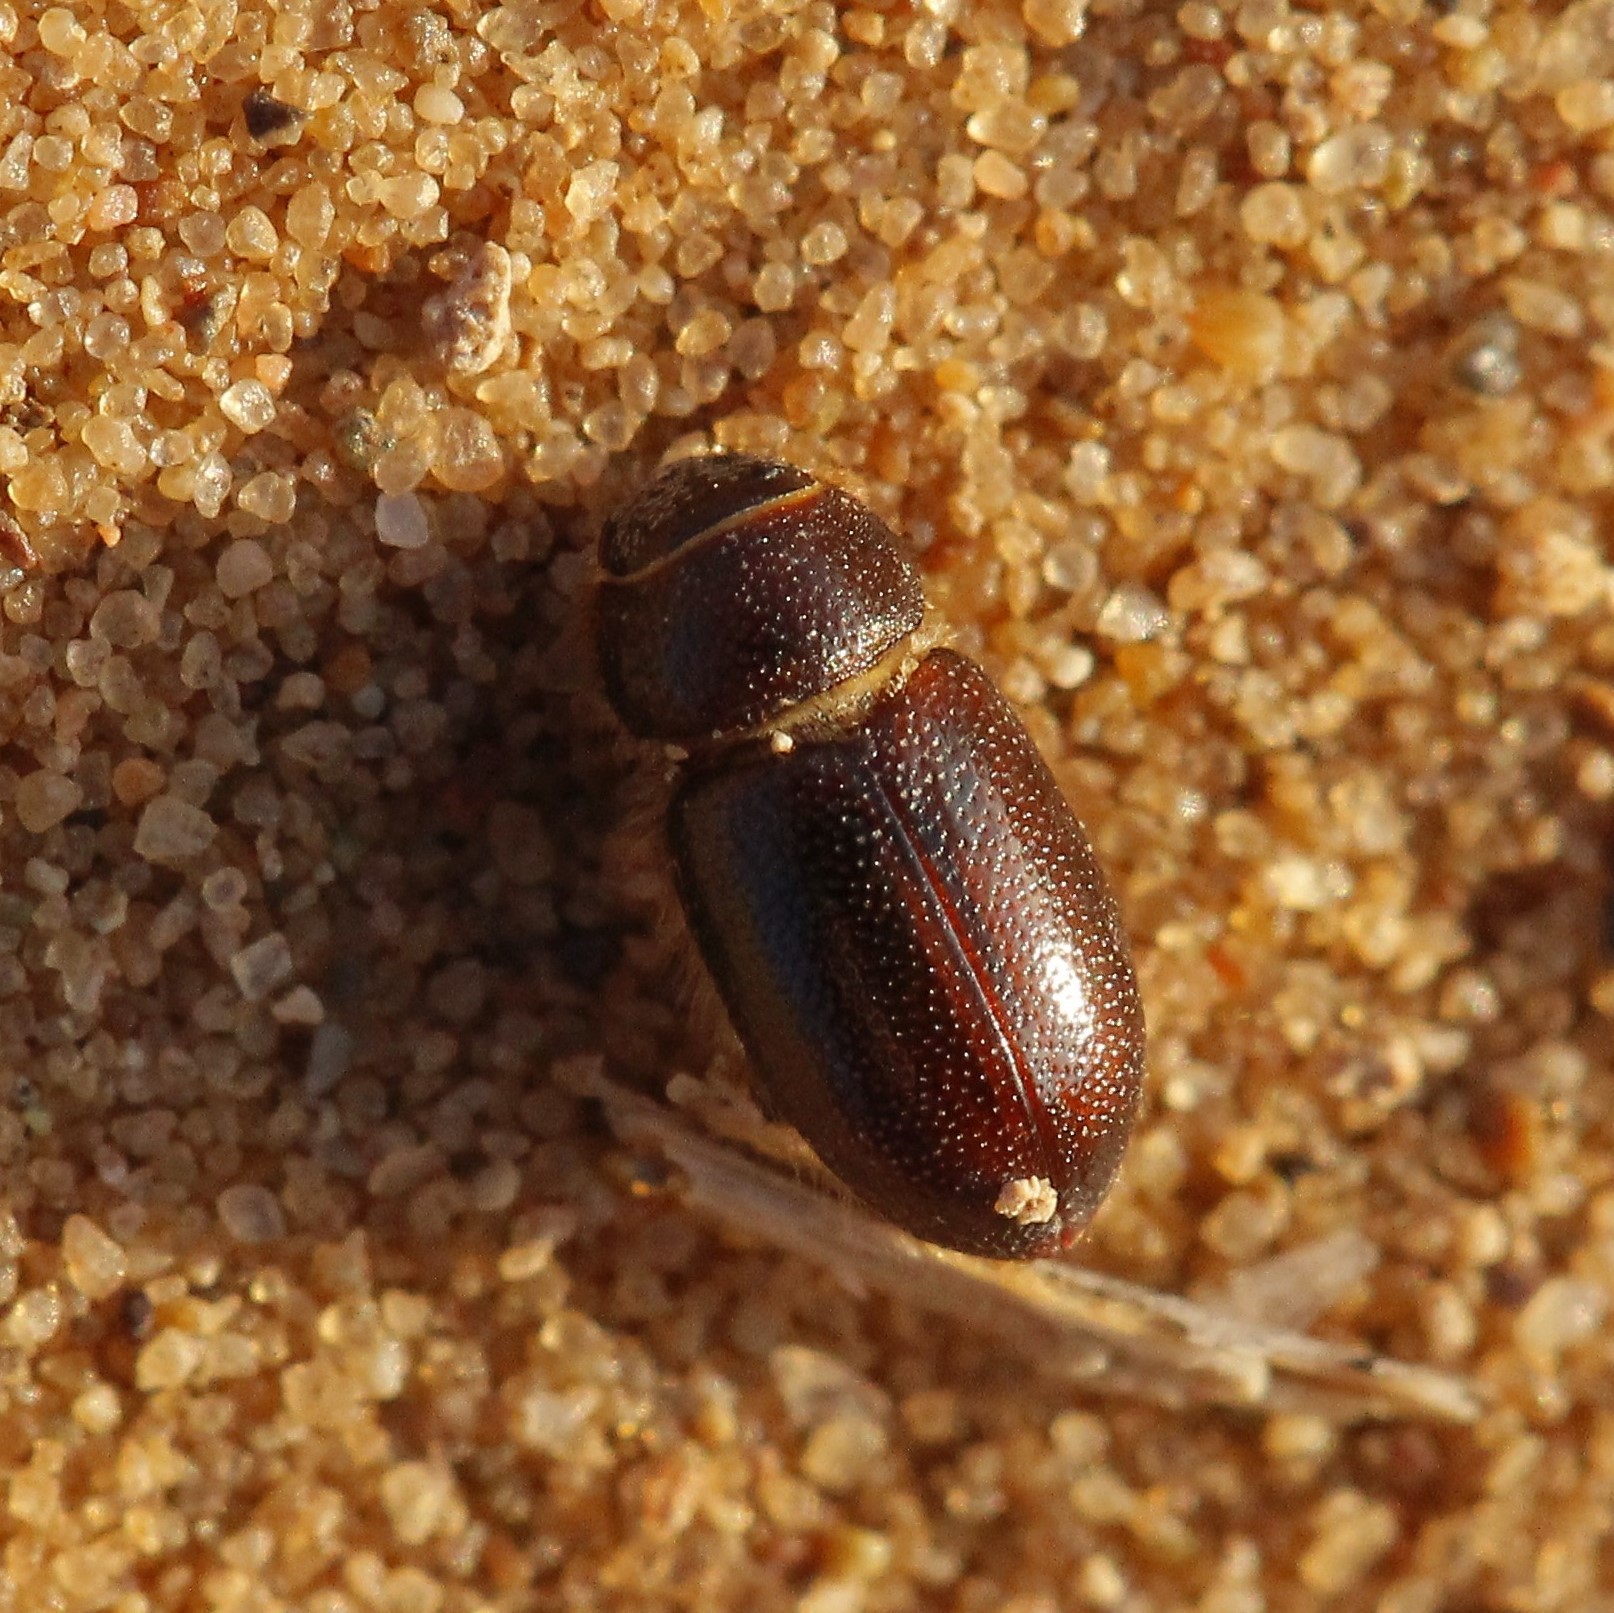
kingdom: Animalia
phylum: Arthropoda
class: Insecta
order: Coleoptera
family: Scarabaeidae
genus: Eremazus
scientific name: Eremazus cribratus
